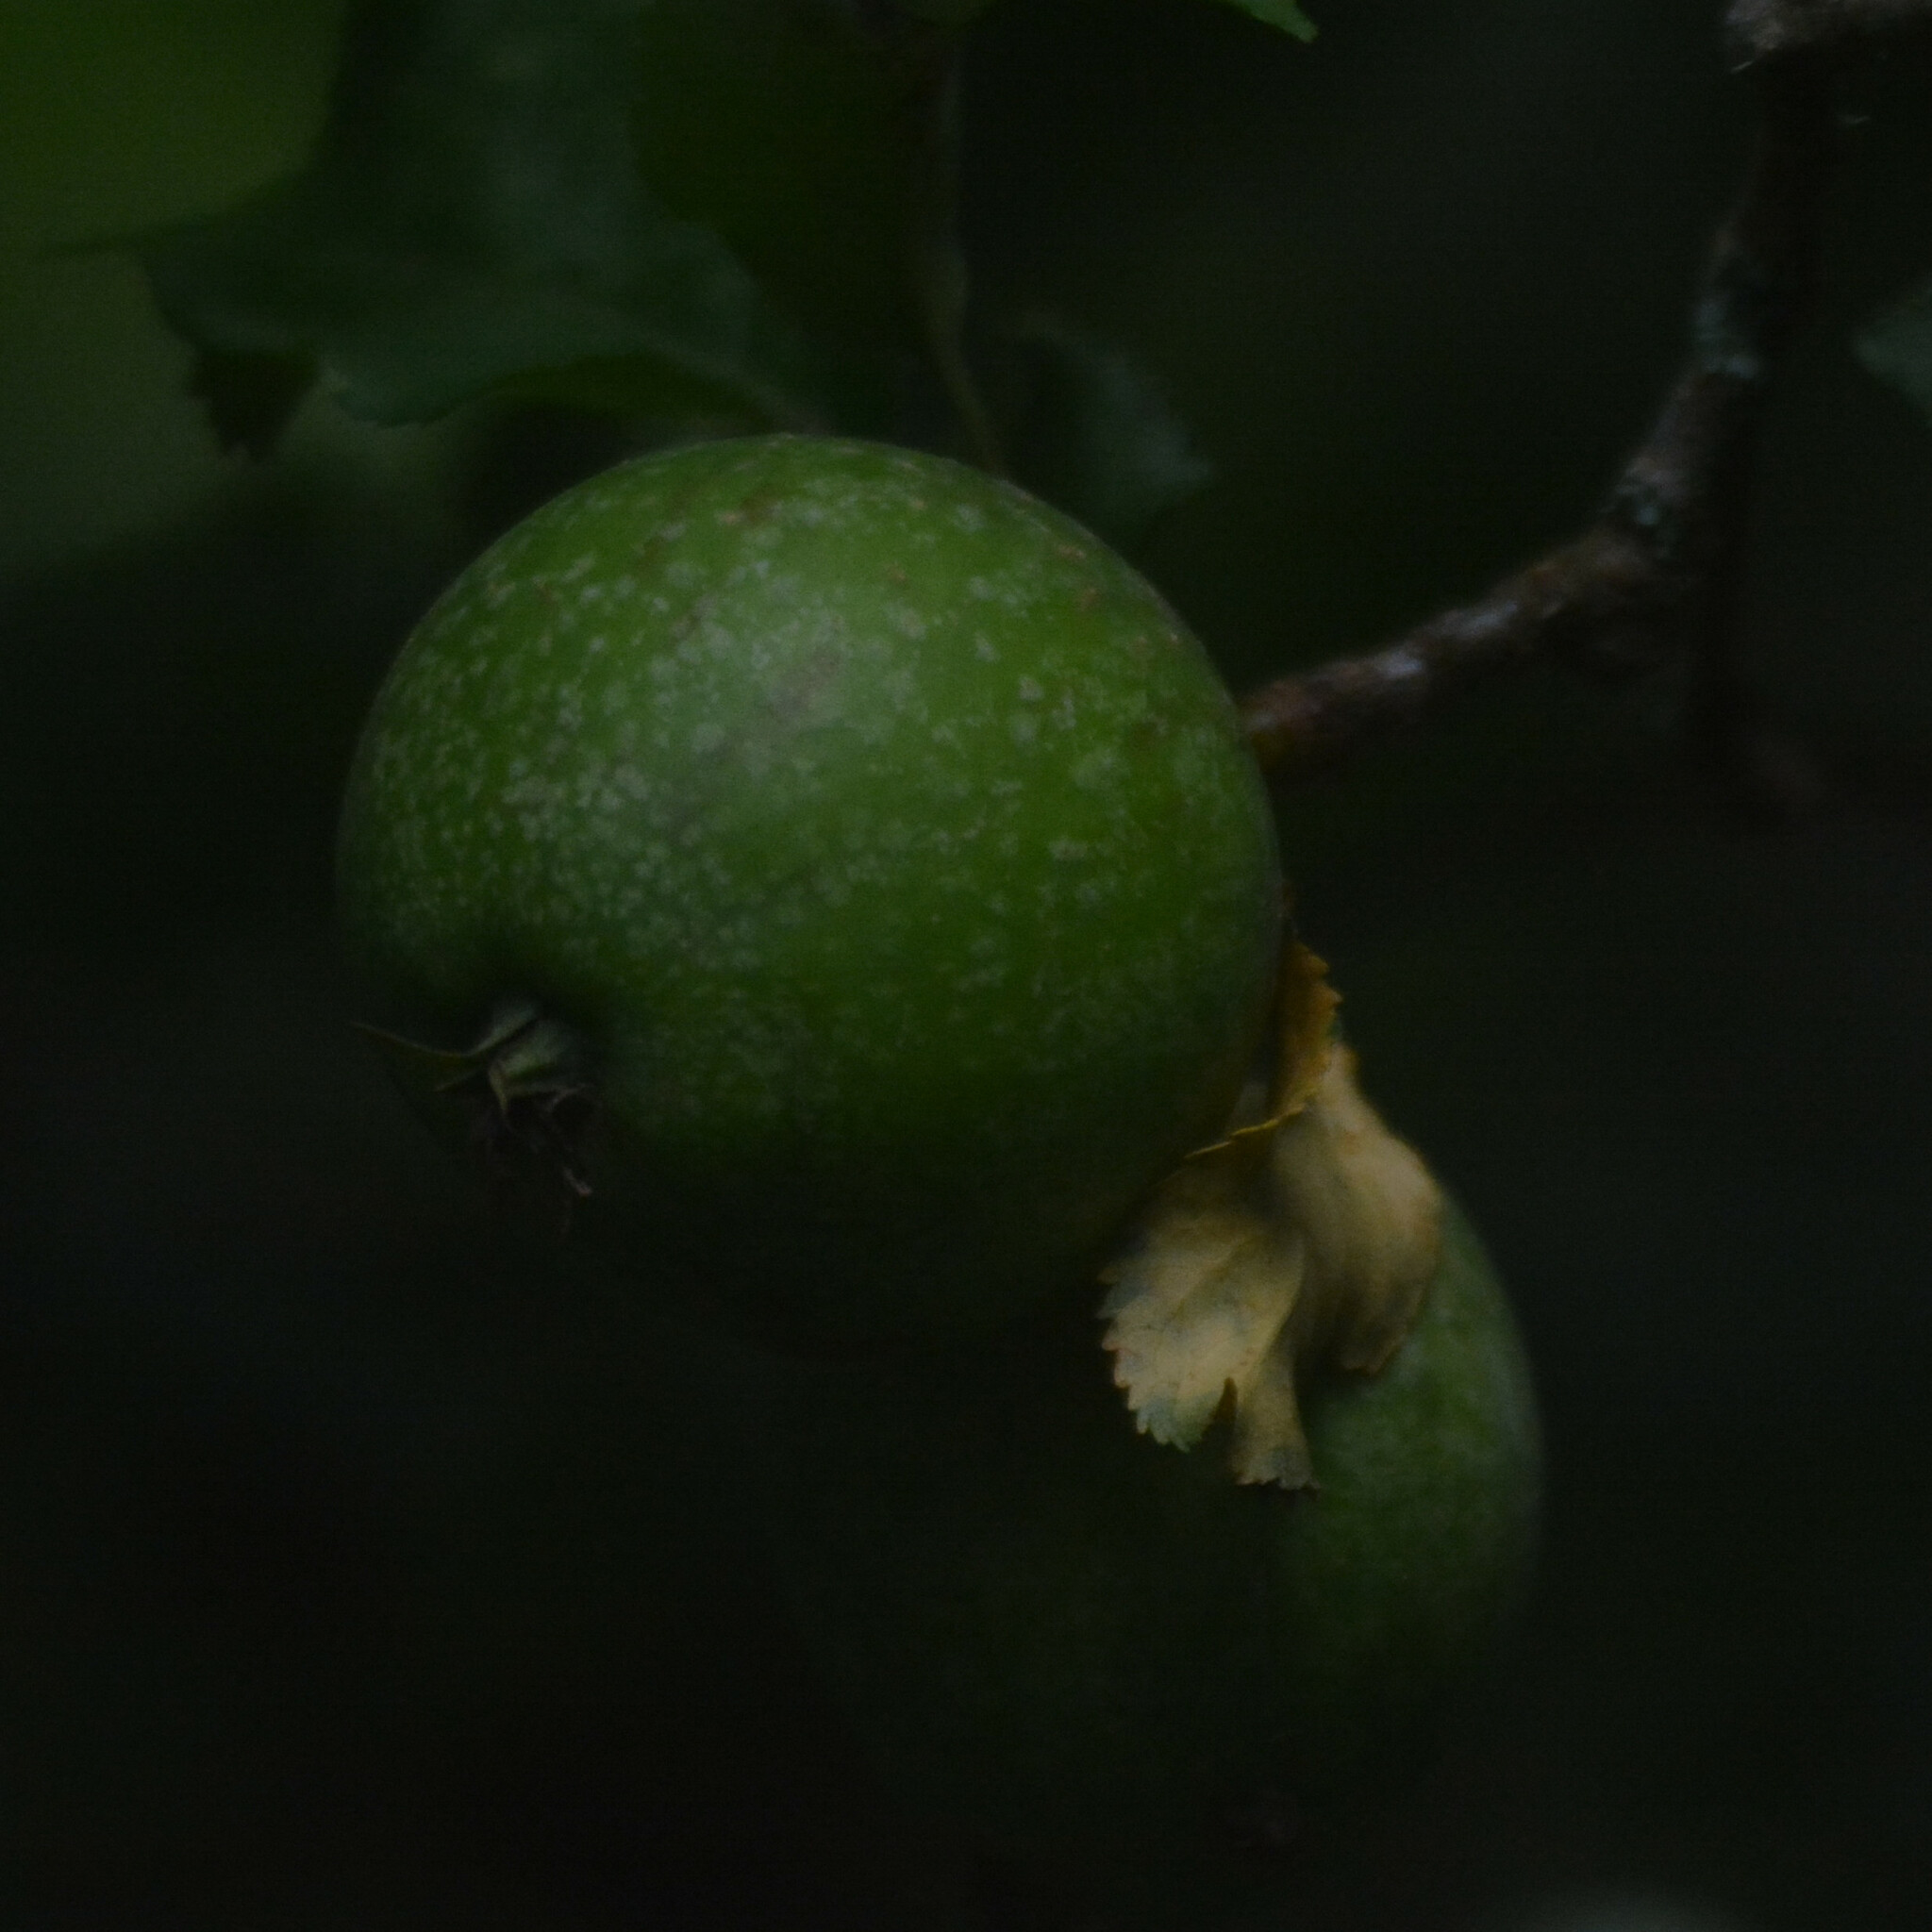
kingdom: Plantae
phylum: Tracheophyta
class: Magnoliopsida
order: Rosales
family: Rosaceae
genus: Malus
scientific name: Malus domestica
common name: Apple
